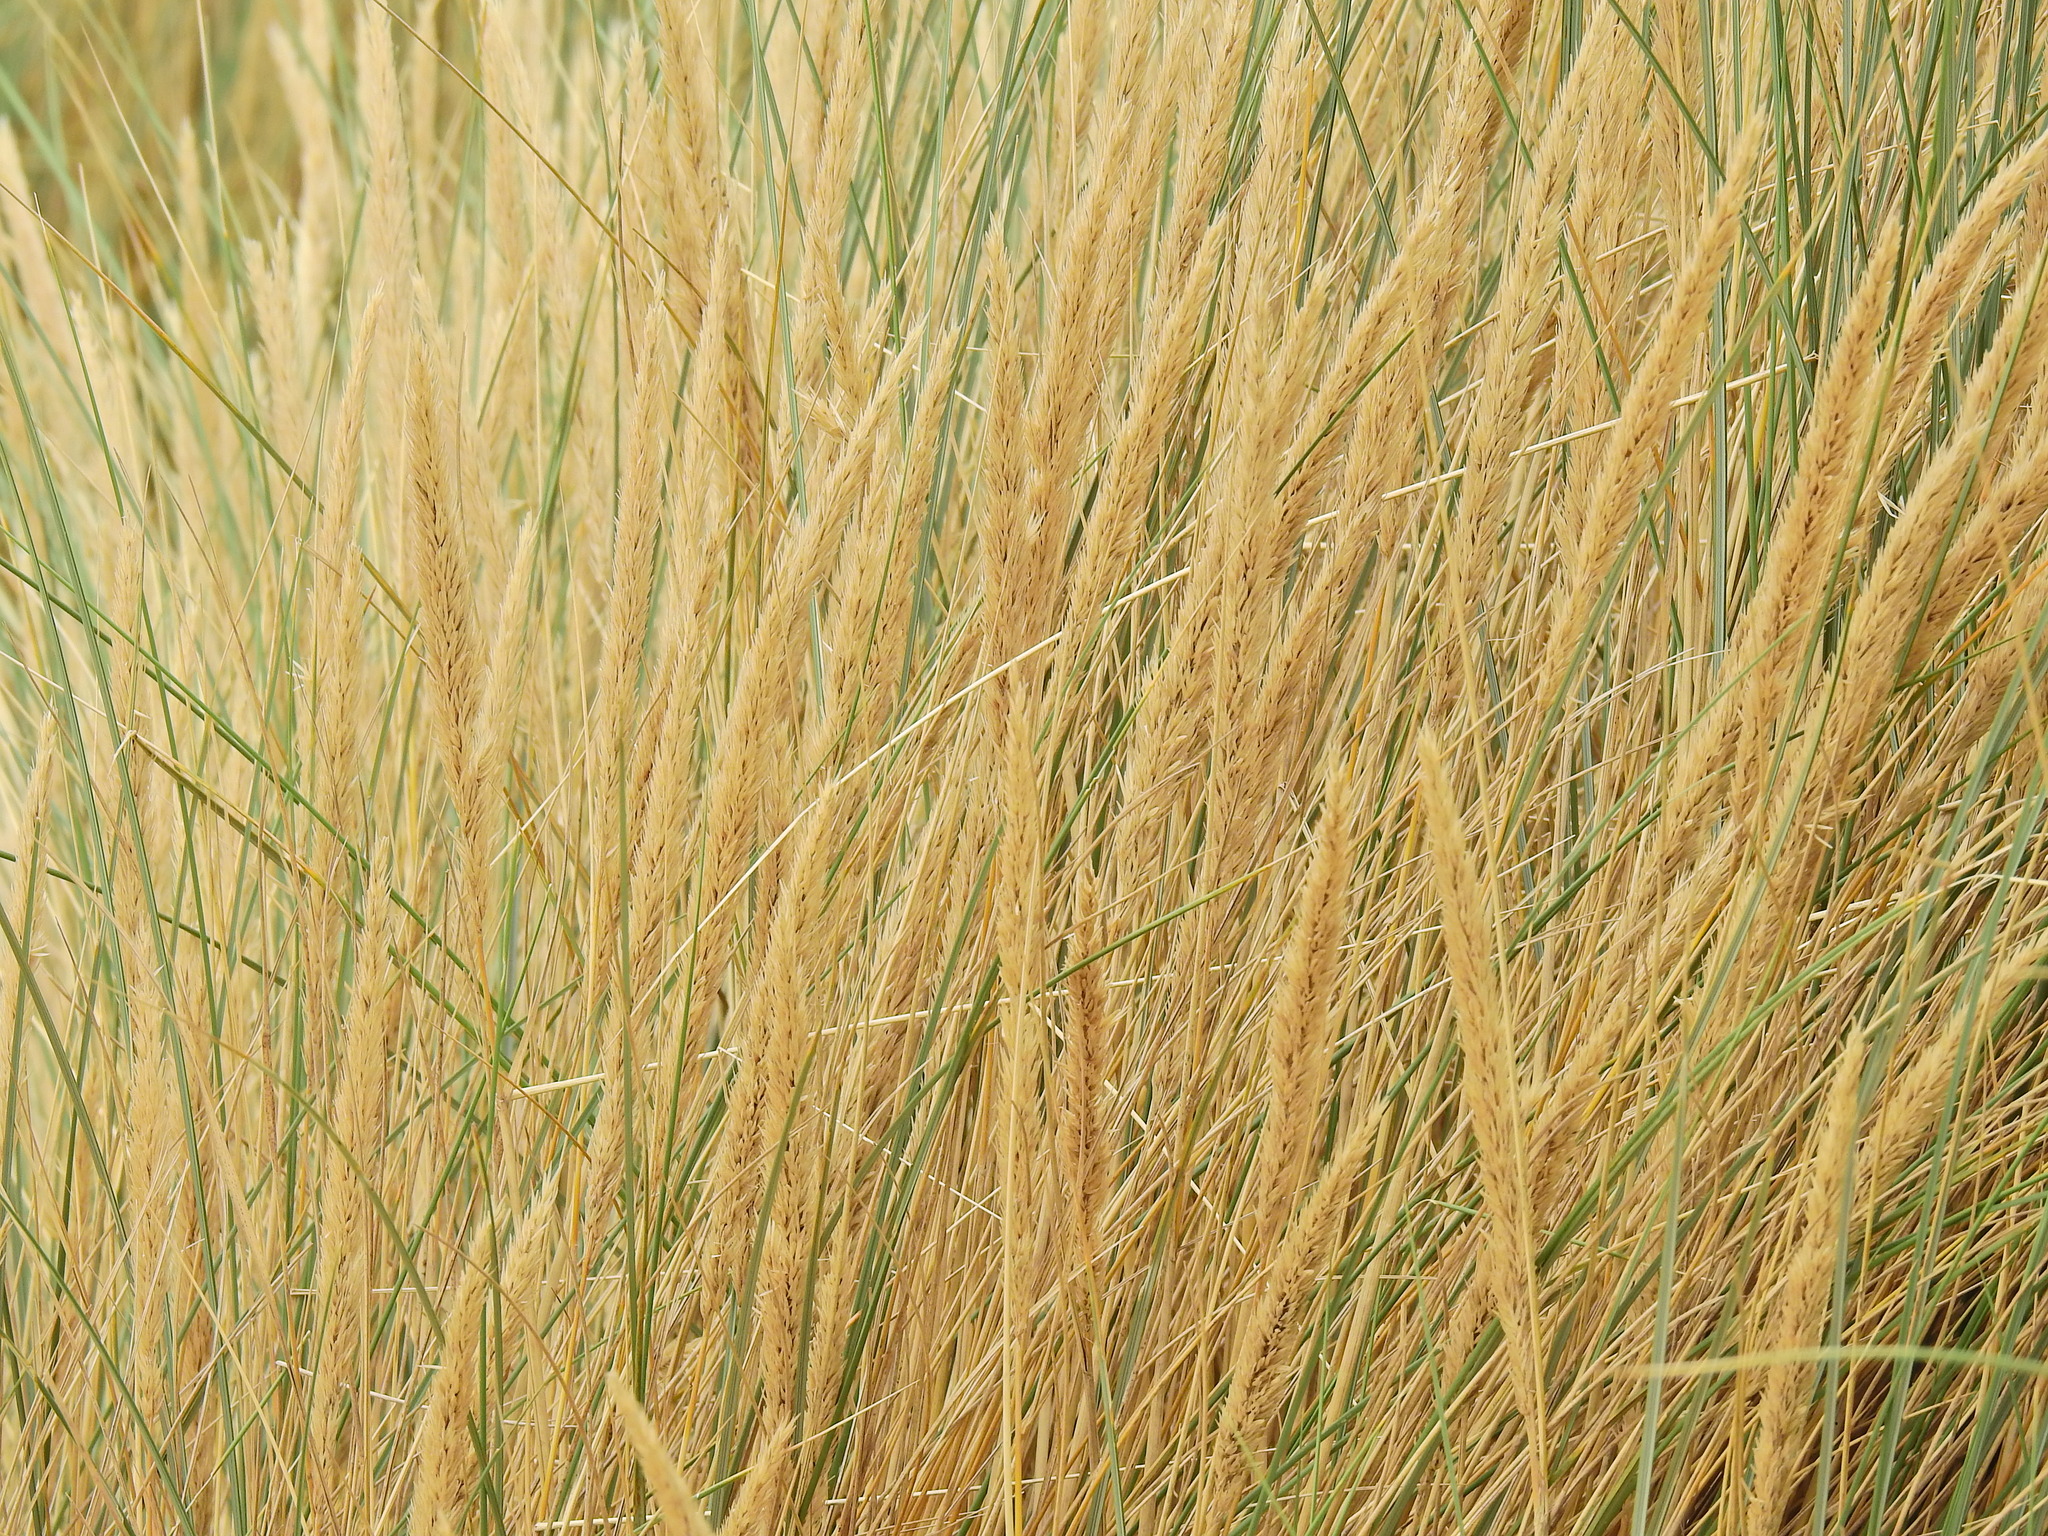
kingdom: Plantae
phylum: Tracheophyta
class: Liliopsida
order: Poales
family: Poaceae
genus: Calamagrostis
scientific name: Calamagrostis arenaria
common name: European beachgrass
